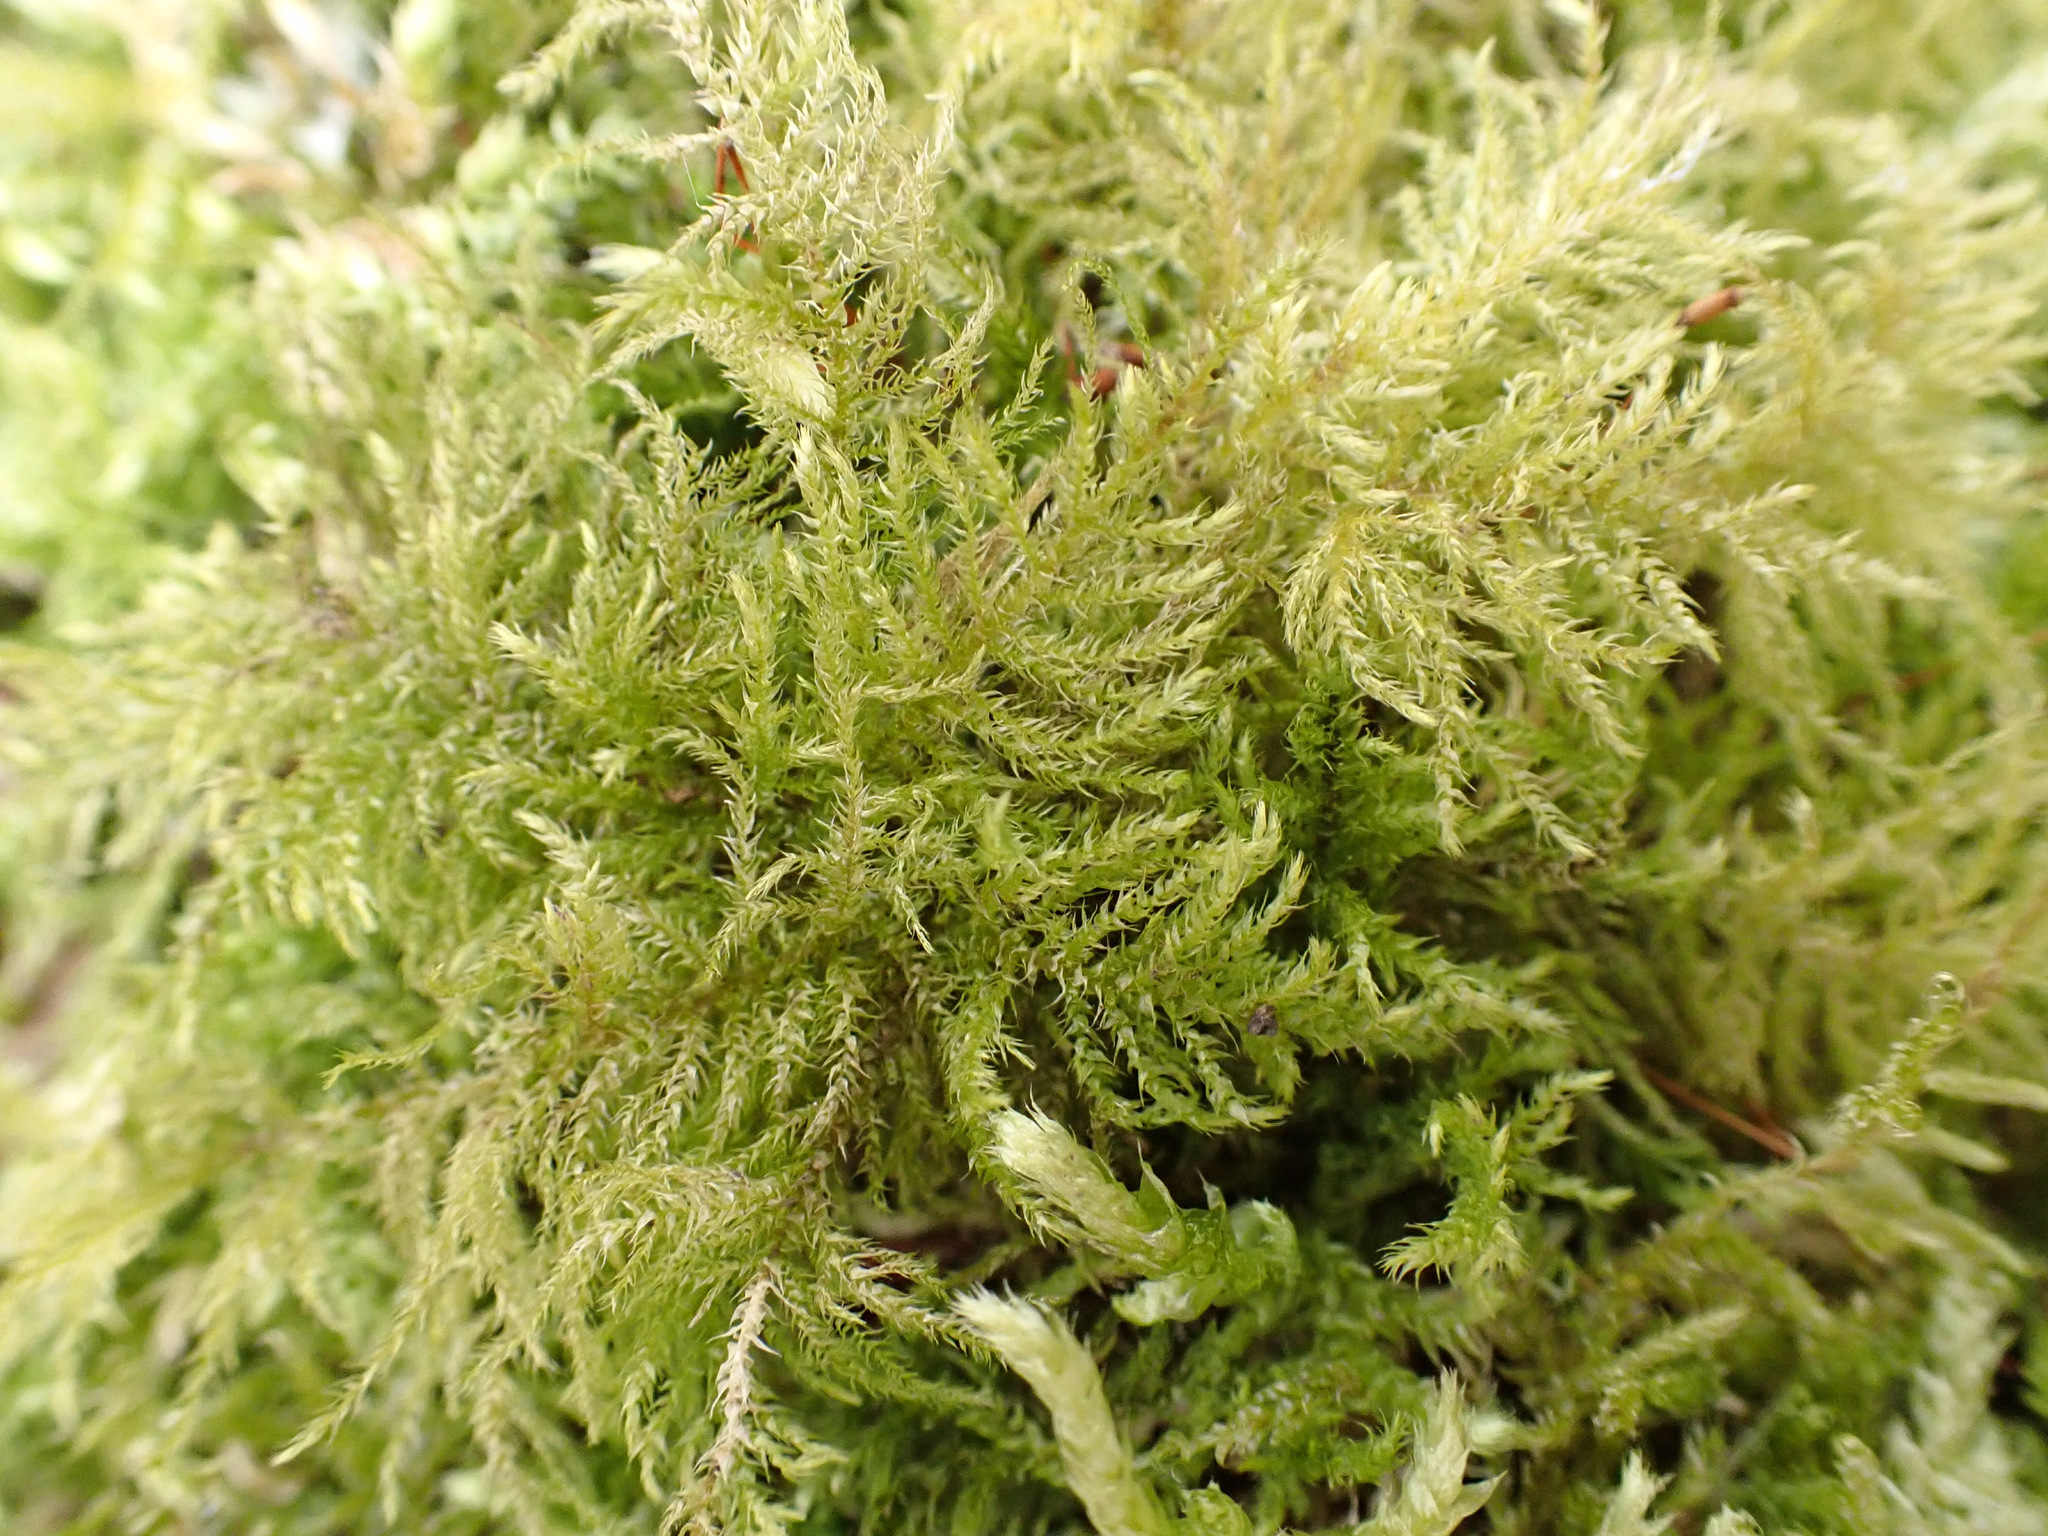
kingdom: Plantae
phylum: Bryophyta
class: Bryopsida
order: Hypnales
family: Brachytheciaceae
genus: Kindbergia
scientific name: Kindbergia praelonga
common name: Slender beaked moss
